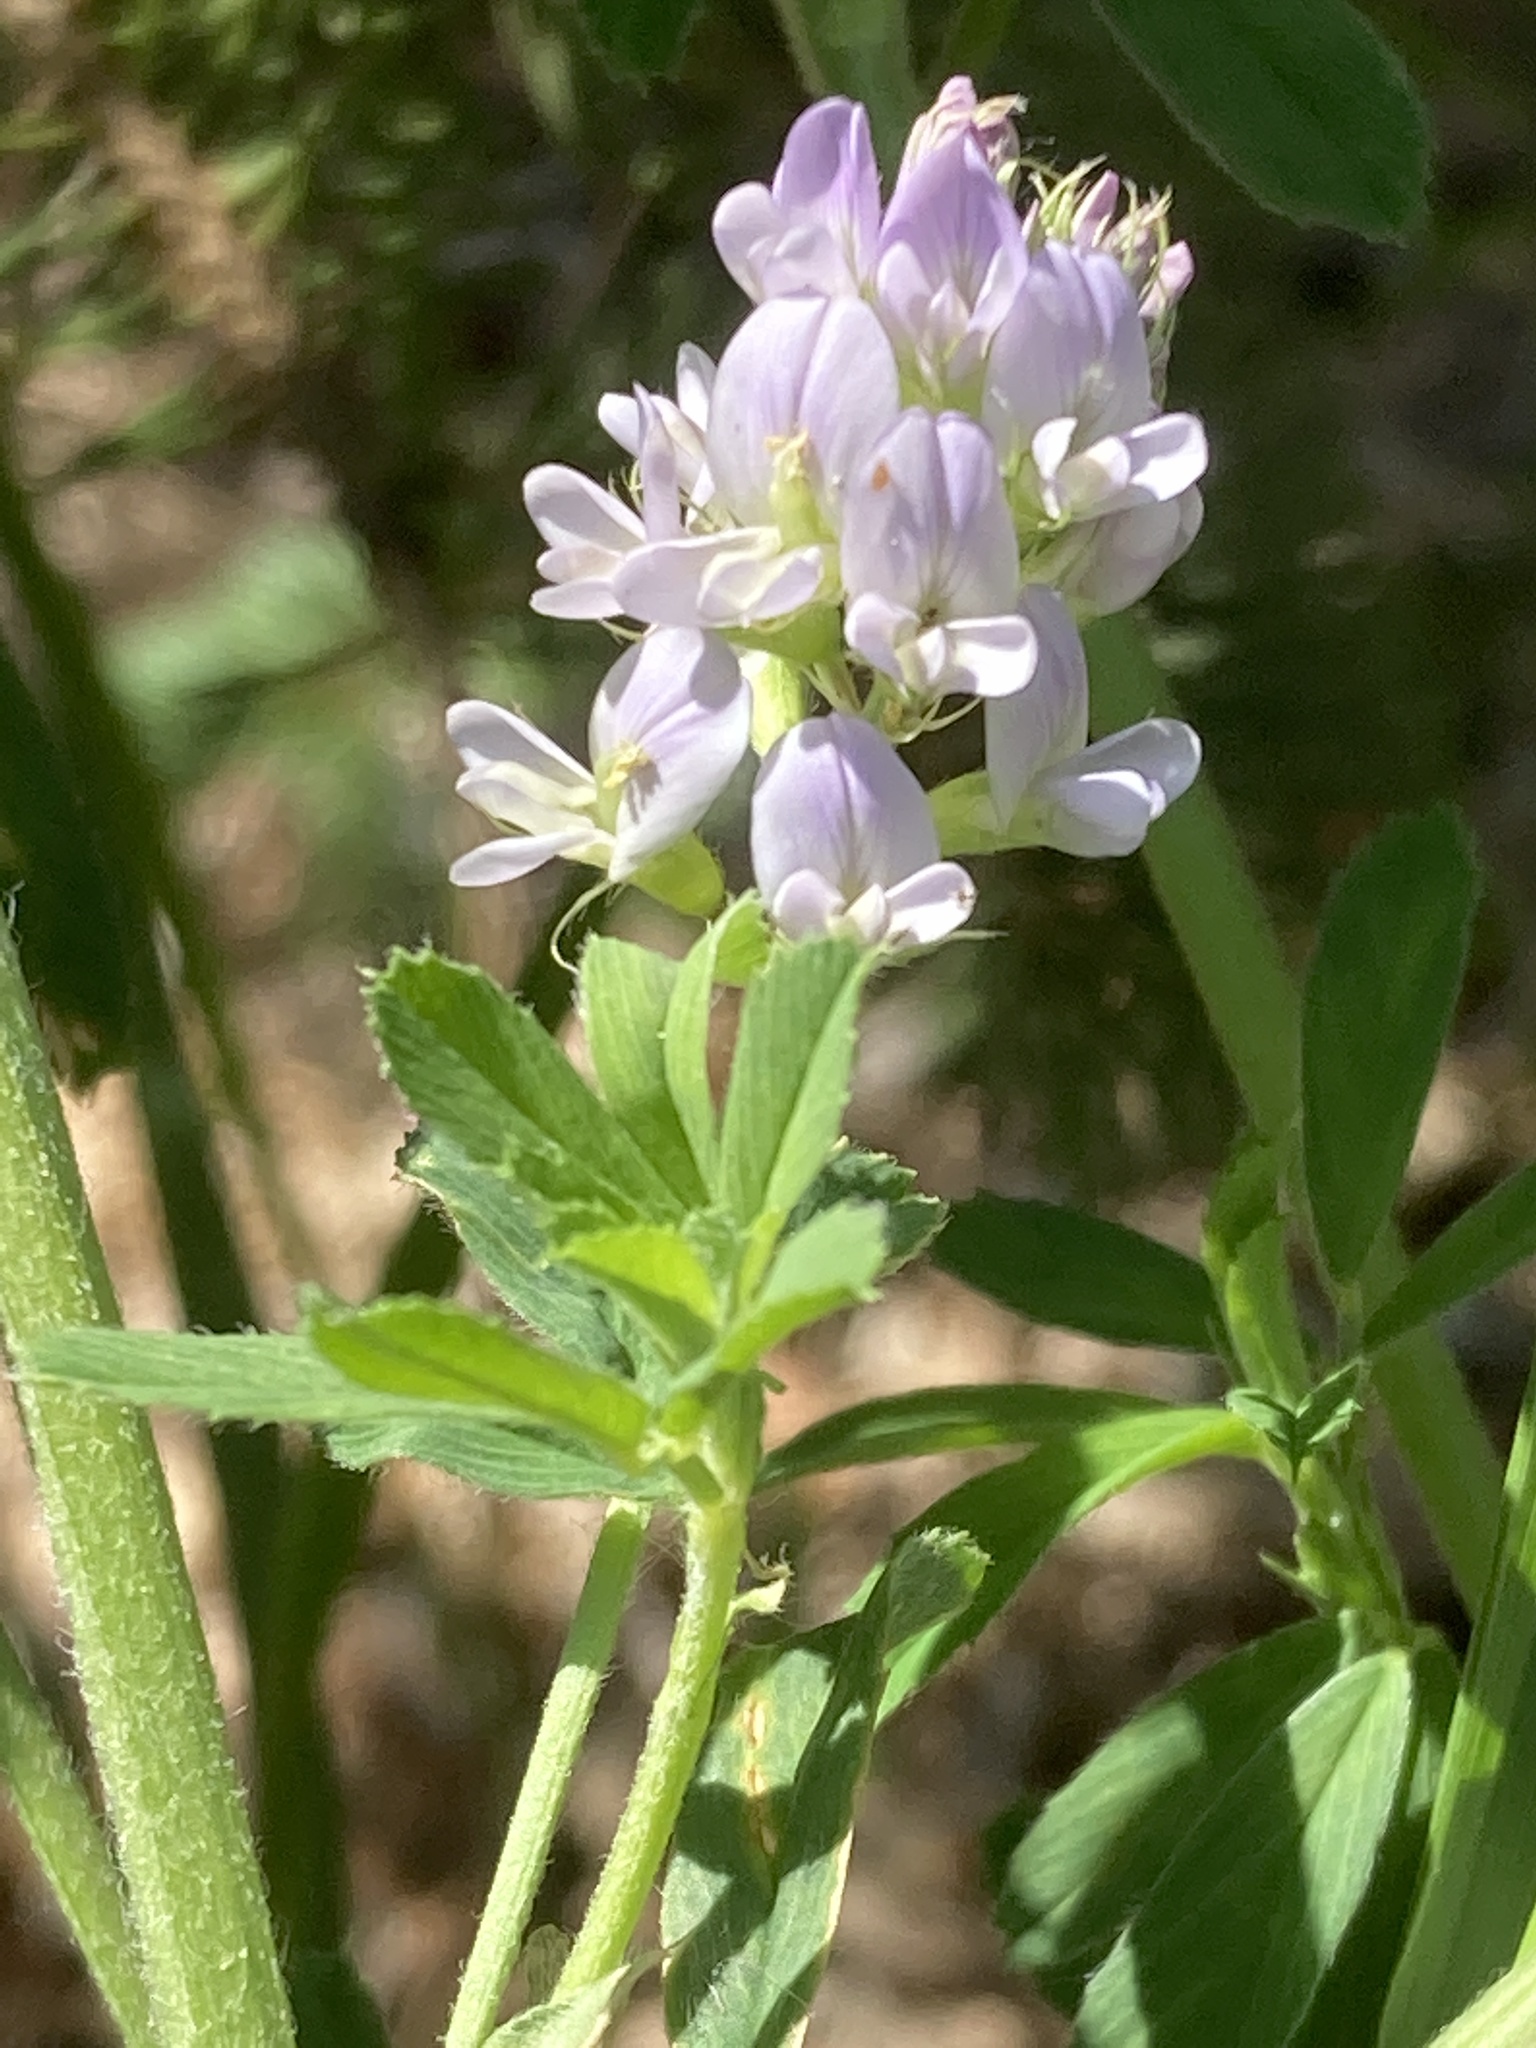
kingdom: Plantae
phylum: Tracheophyta
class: Magnoliopsida
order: Fabales
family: Fabaceae
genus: Medicago
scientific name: Medicago sativa
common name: Alfalfa
